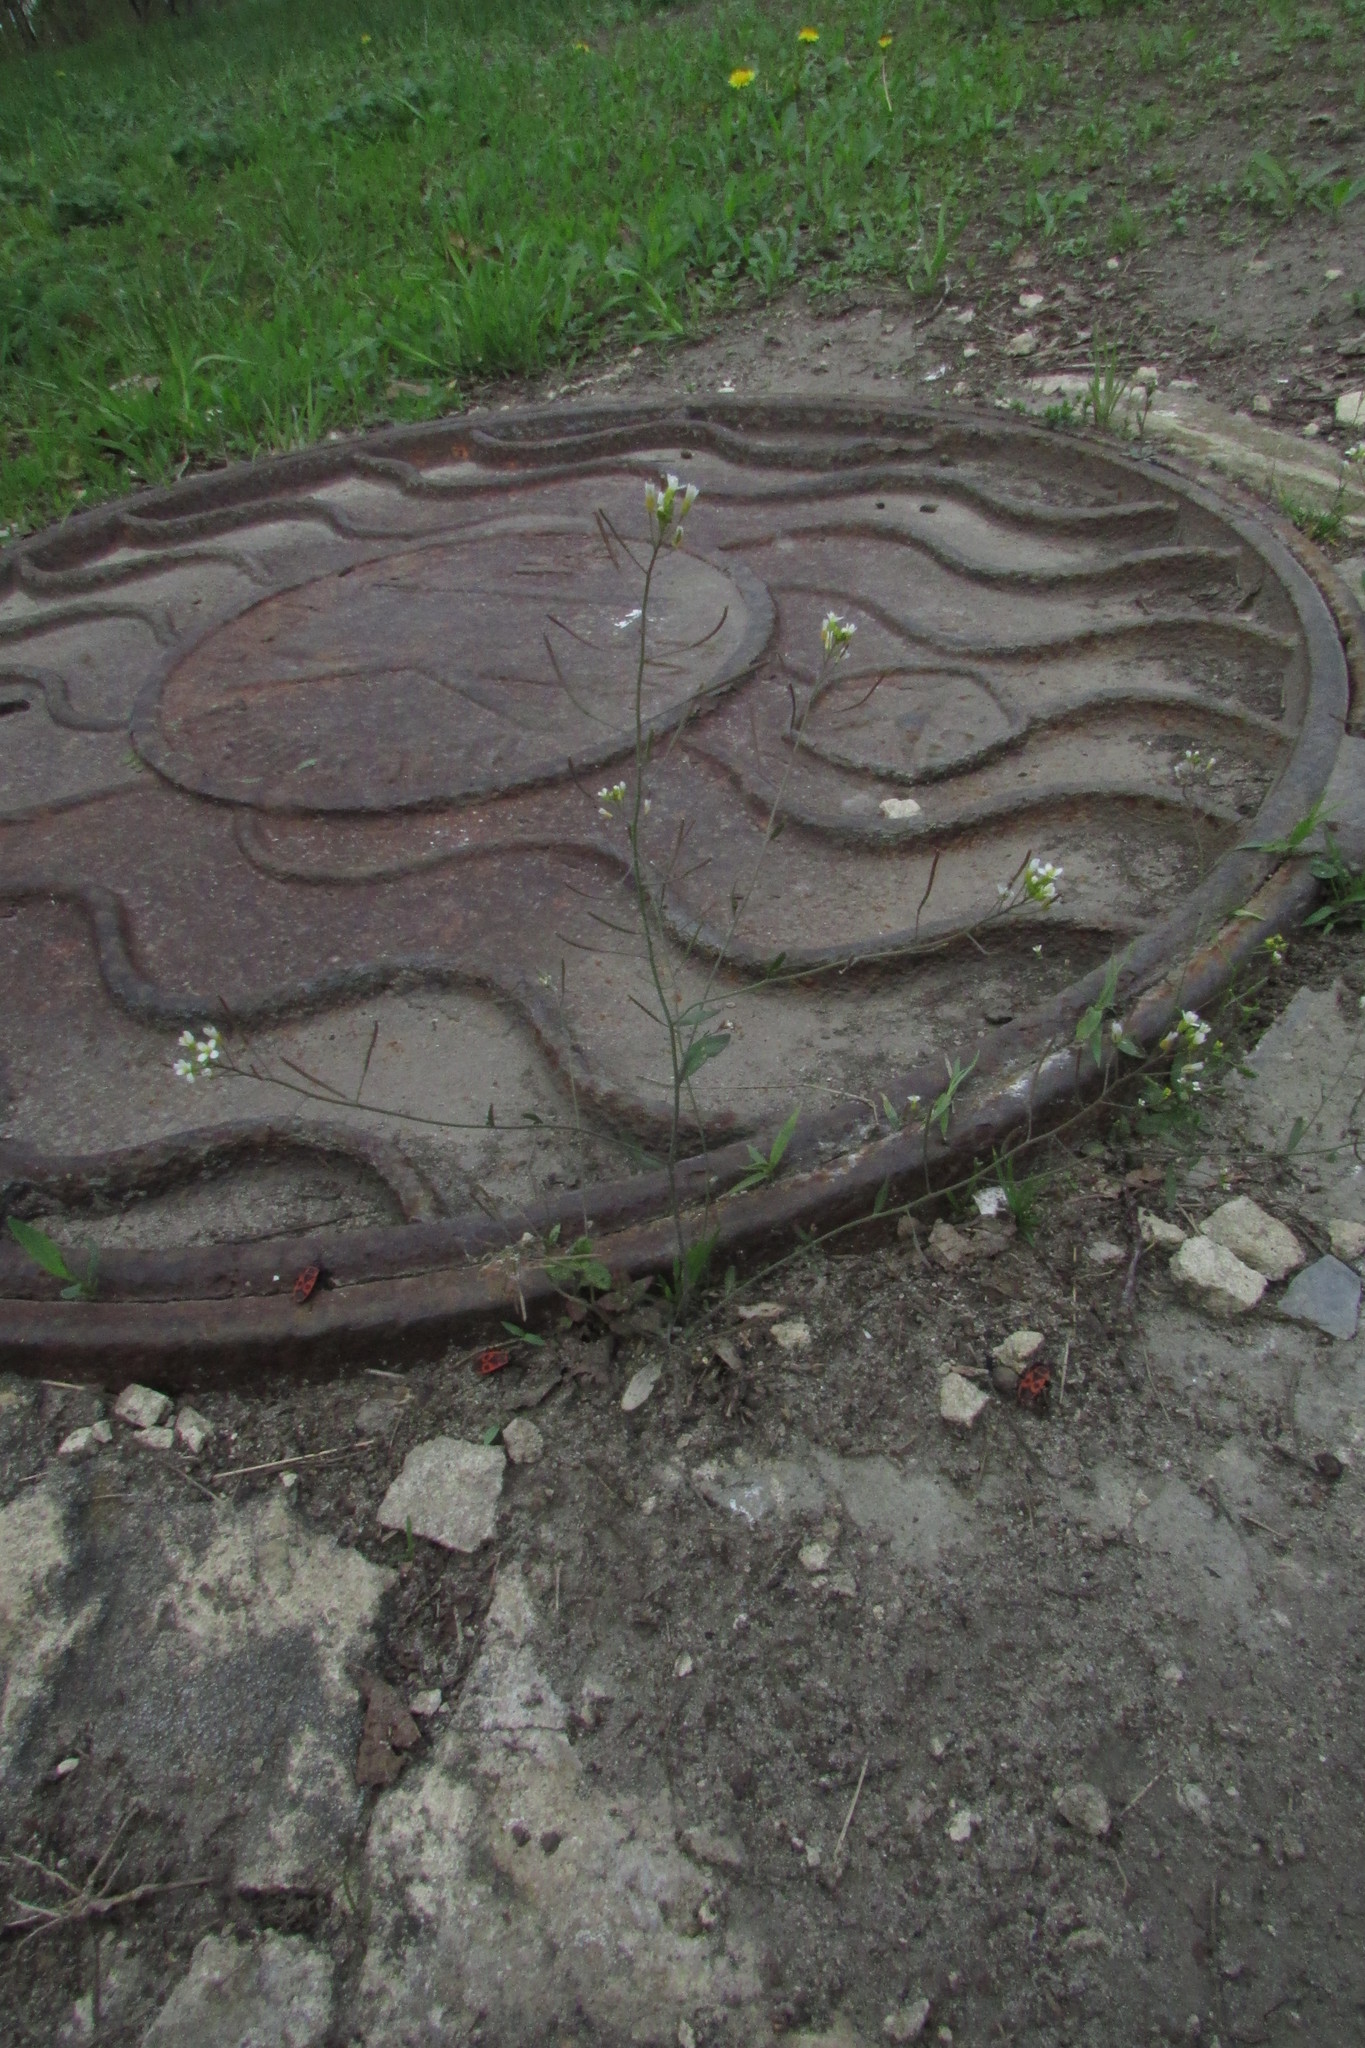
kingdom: Plantae
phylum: Tracheophyta
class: Magnoliopsida
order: Brassicales
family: Brassicaceae
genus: Arabidopsis
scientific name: Arabidopsis thaliana
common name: Thale cress
